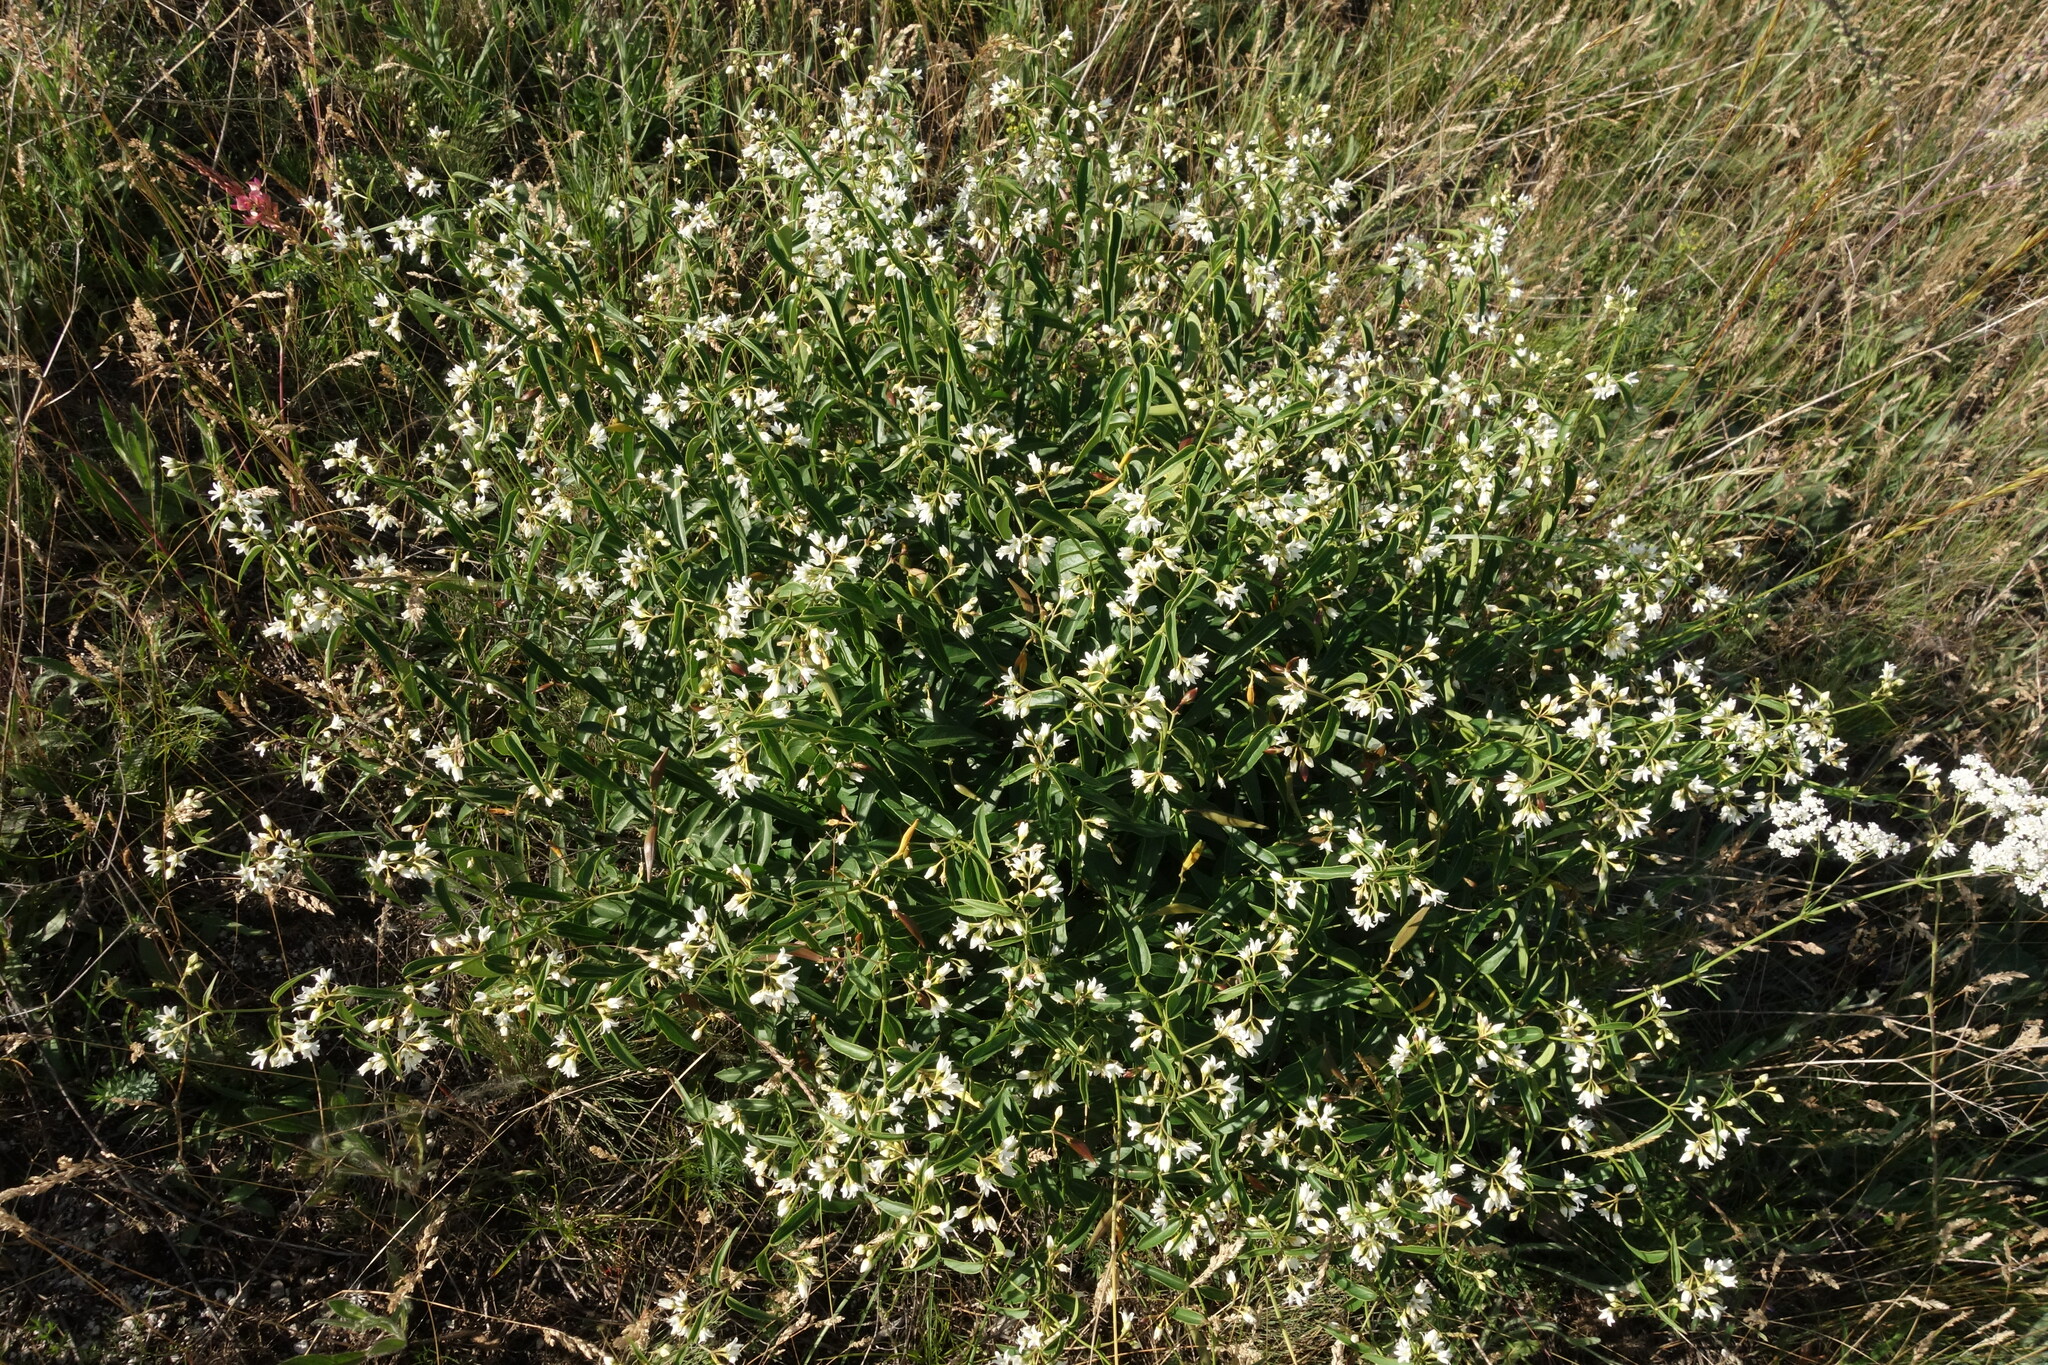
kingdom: Plantae
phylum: Tracheophyta
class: Magnoliopsida
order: Gentianales
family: Apocynaceae
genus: Vincetoxicum
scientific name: Vincetoxicum hirundinaria
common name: White swallowwort
